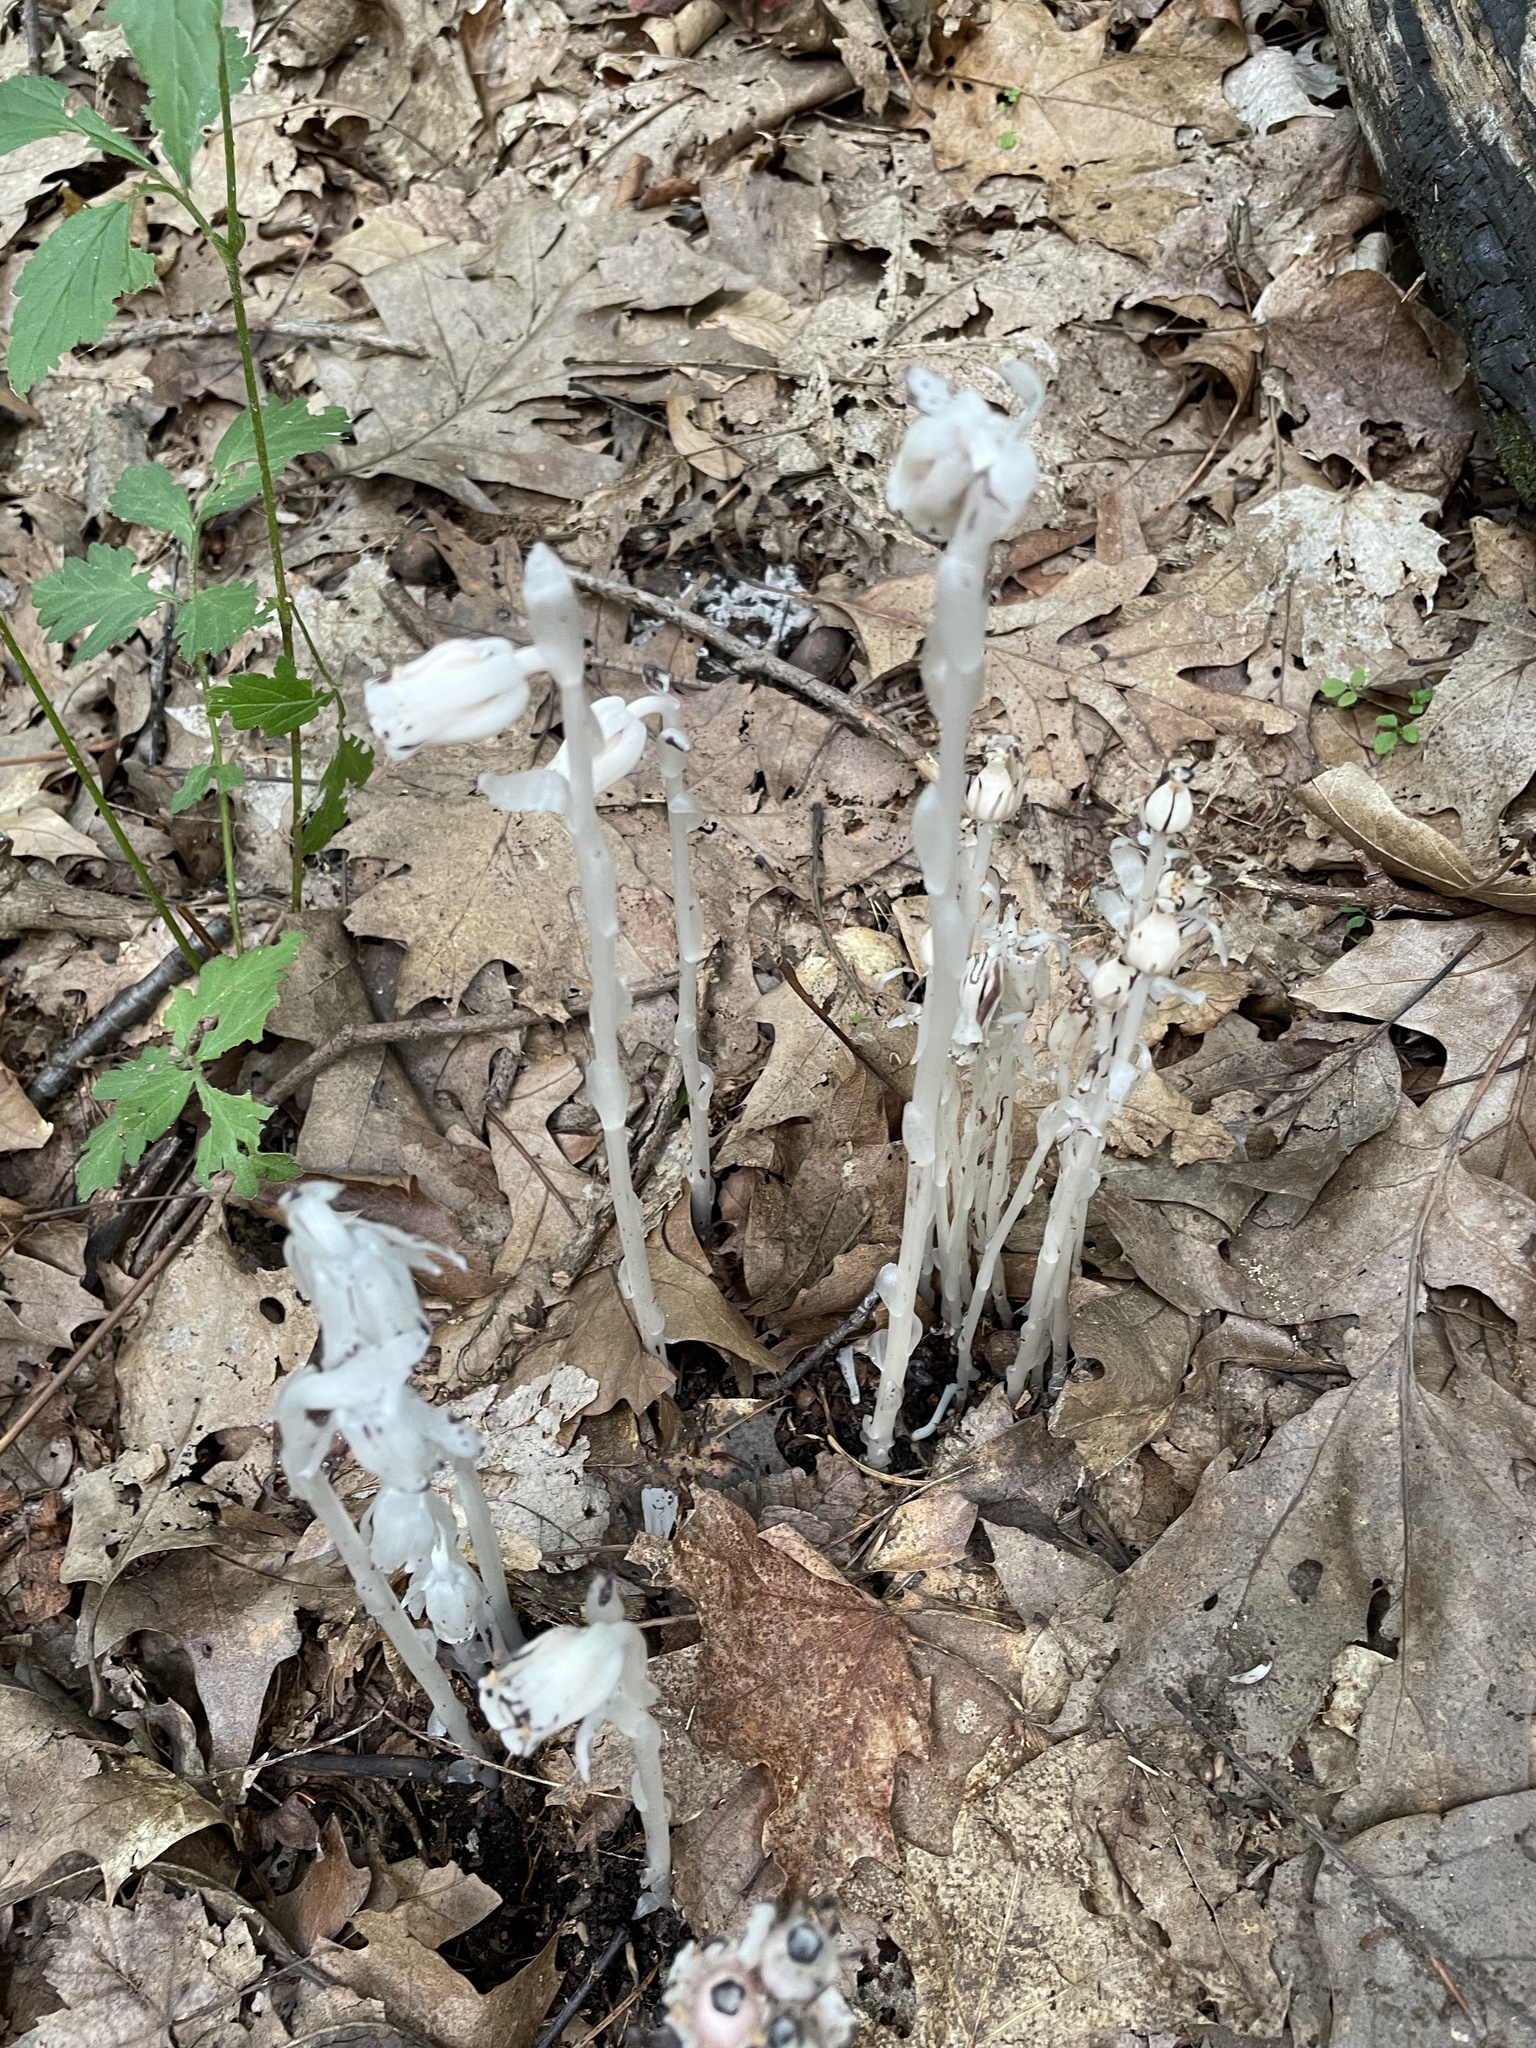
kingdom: Plantae
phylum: Tracheophyta
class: Magnoliopsida
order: Ericales
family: Ericaceae
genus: Monotropa
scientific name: Monotropa uniflora
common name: Convulsion root
